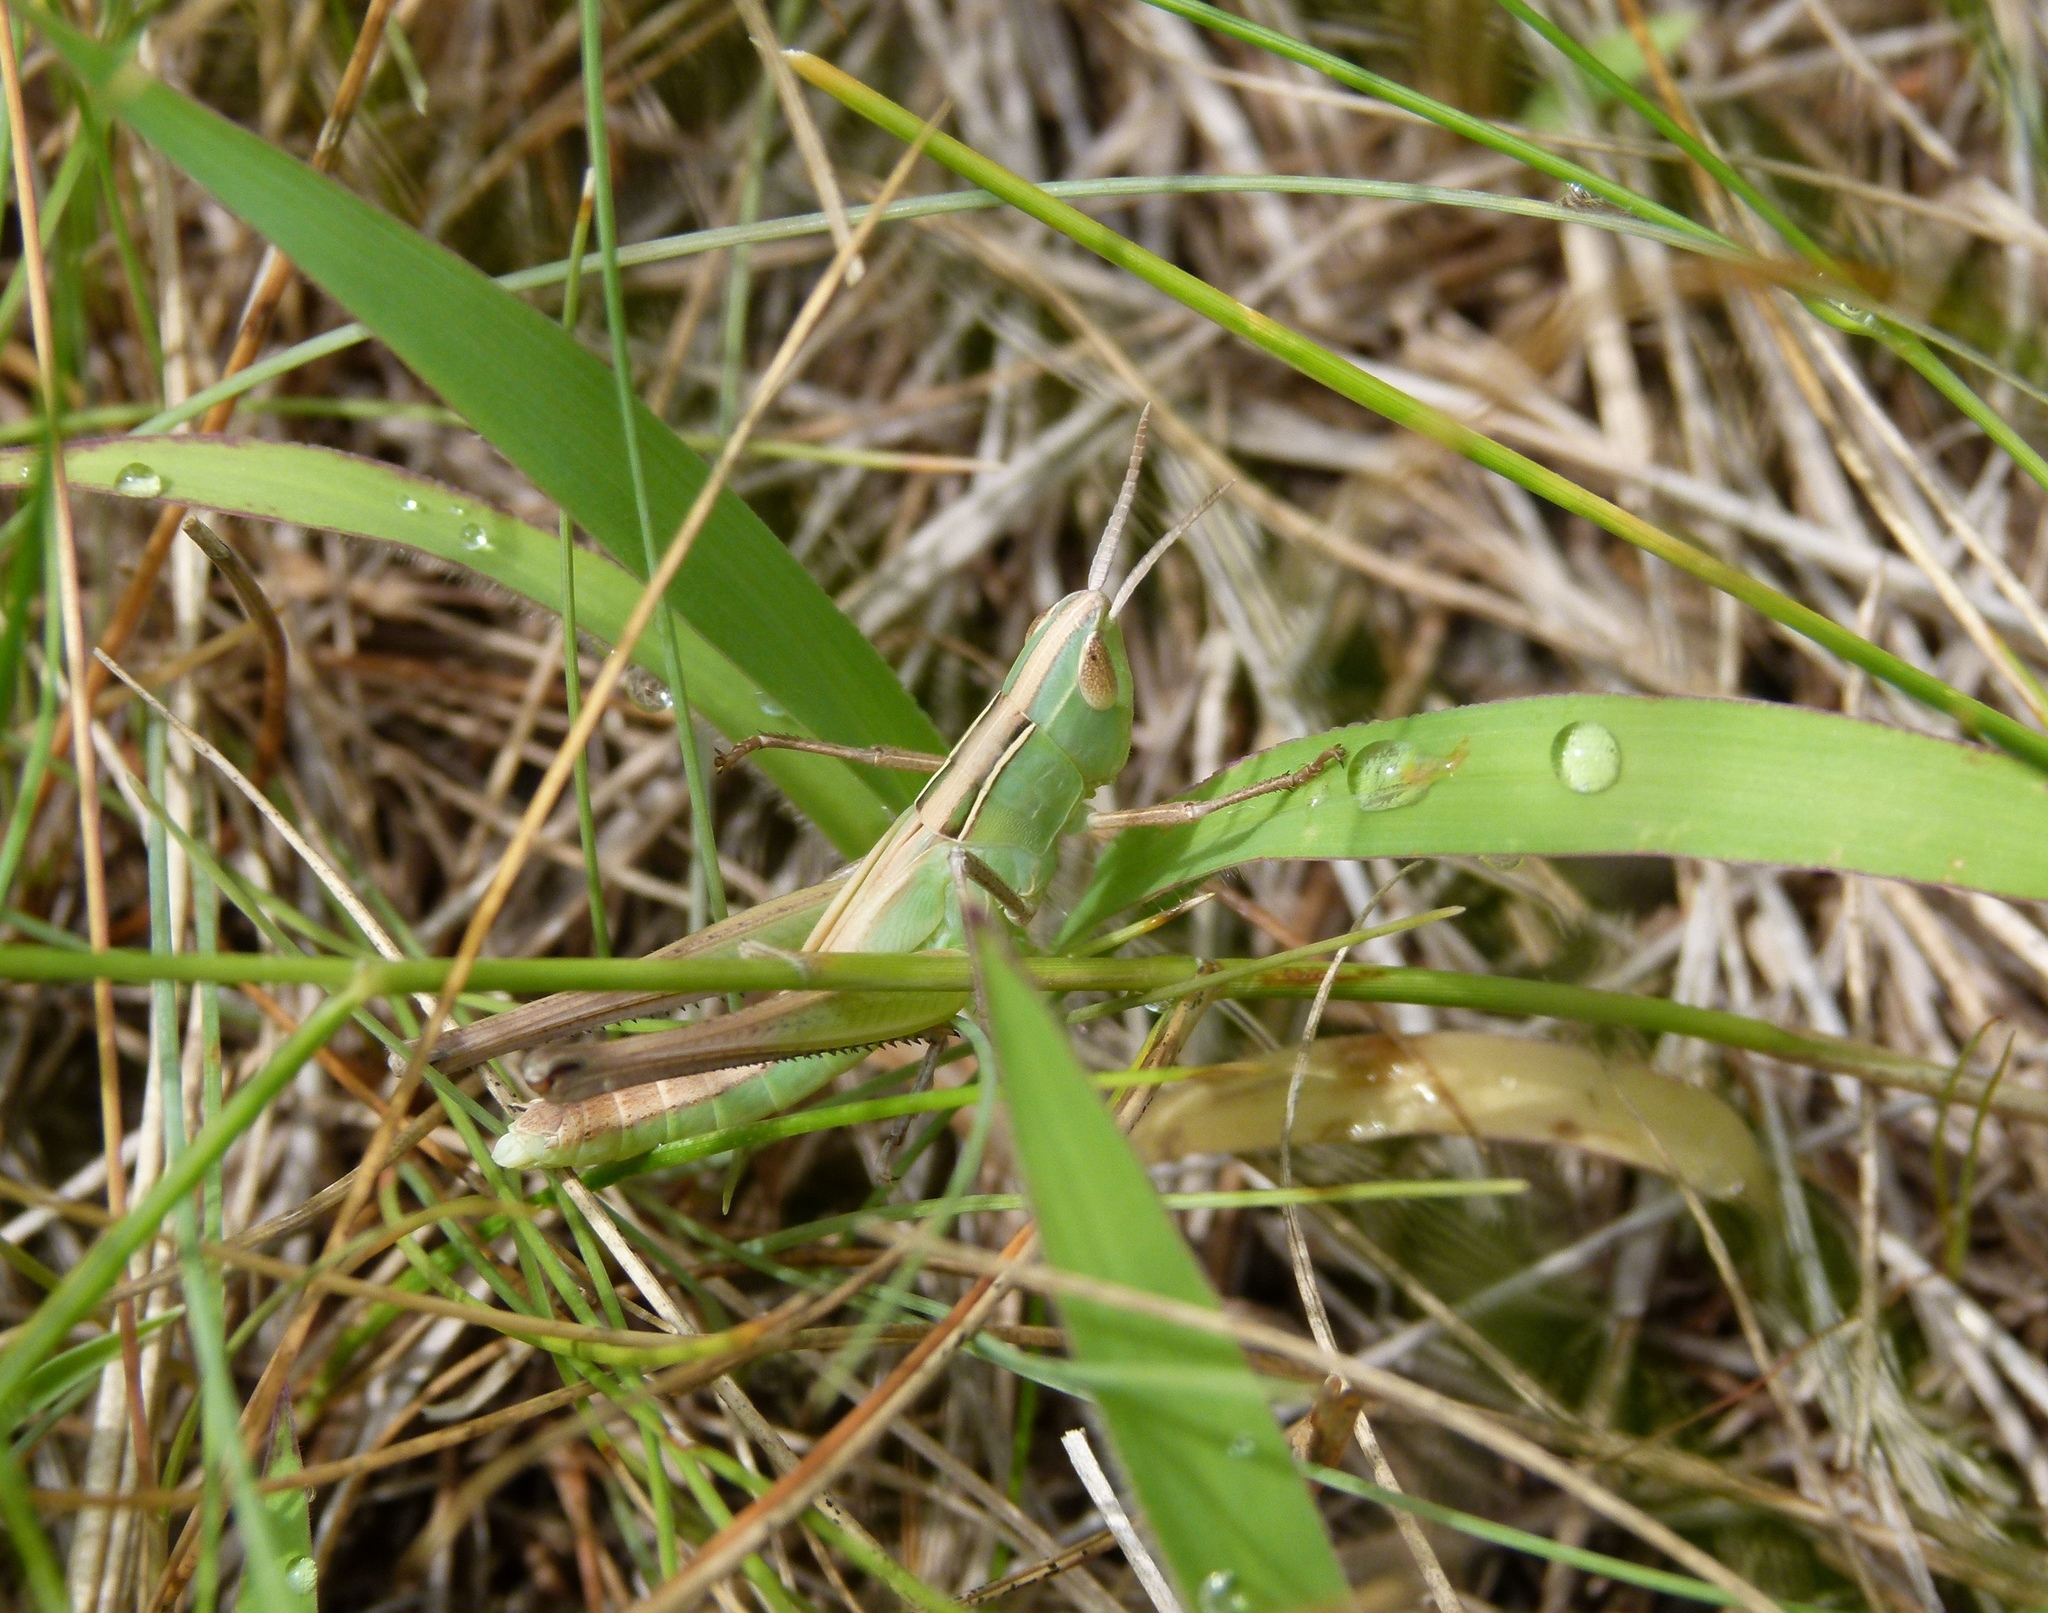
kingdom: Animalia
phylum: Arthropoda
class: Insecta
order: Orthoptera
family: Acrididae
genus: Syrbula
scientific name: Syrbula admirabilis
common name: Handsome grasshopper
